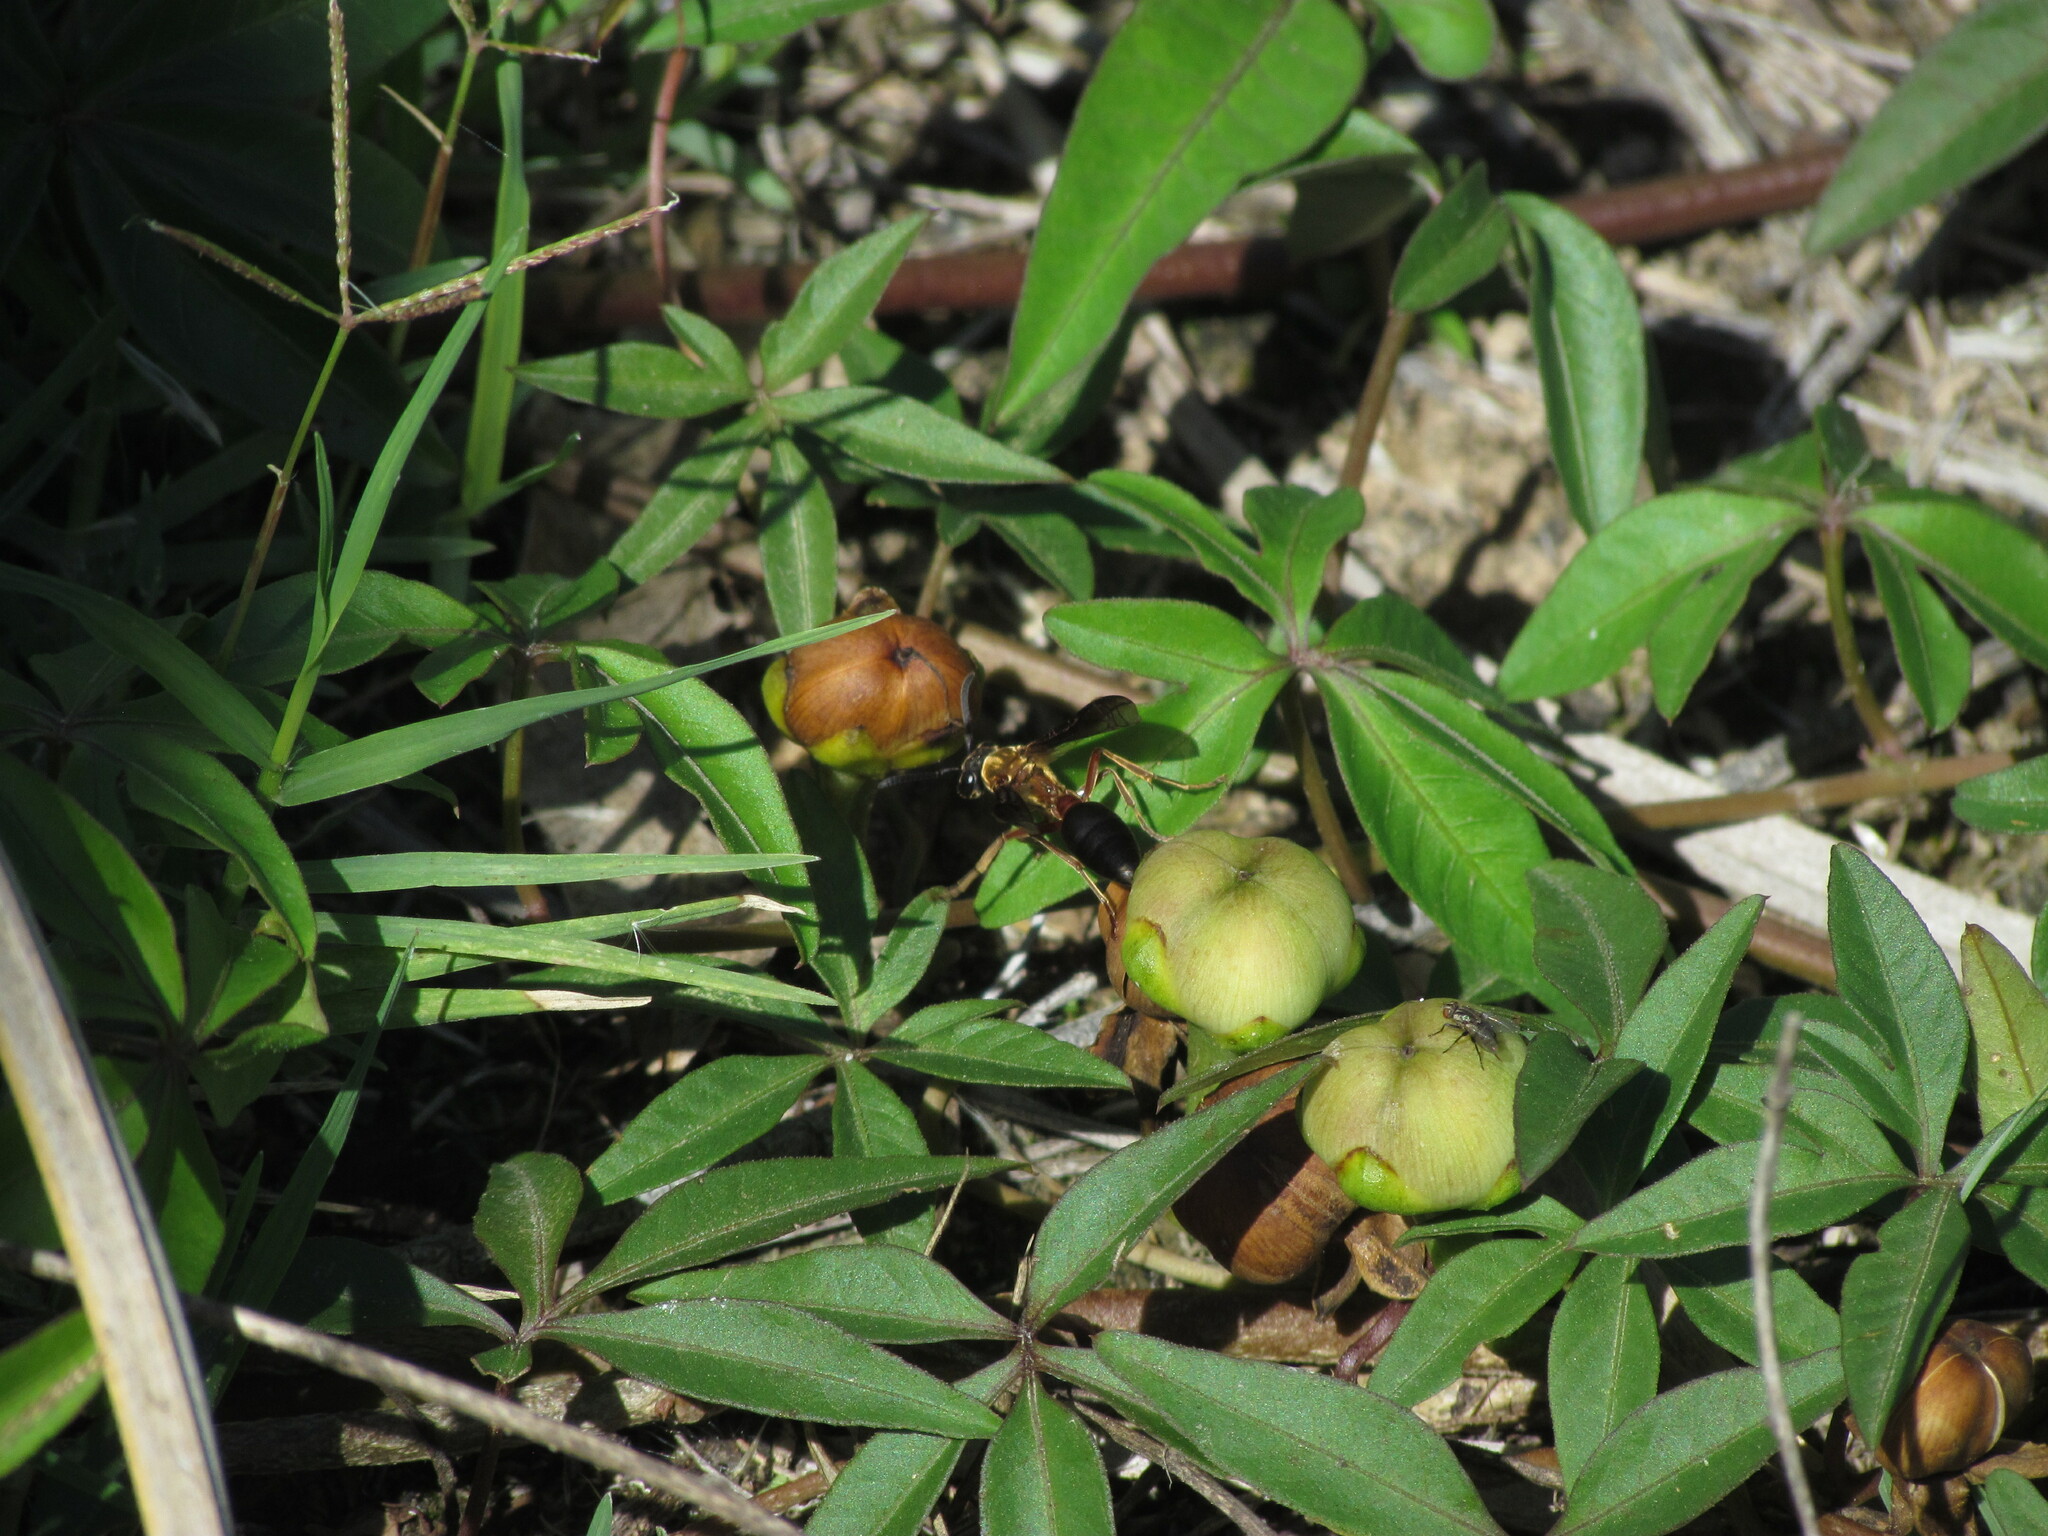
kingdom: Animalia
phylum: Arthropoda
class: Insecta
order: Hymenoptera
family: Eumenidae
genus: Polybia
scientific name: Polybia sericea
